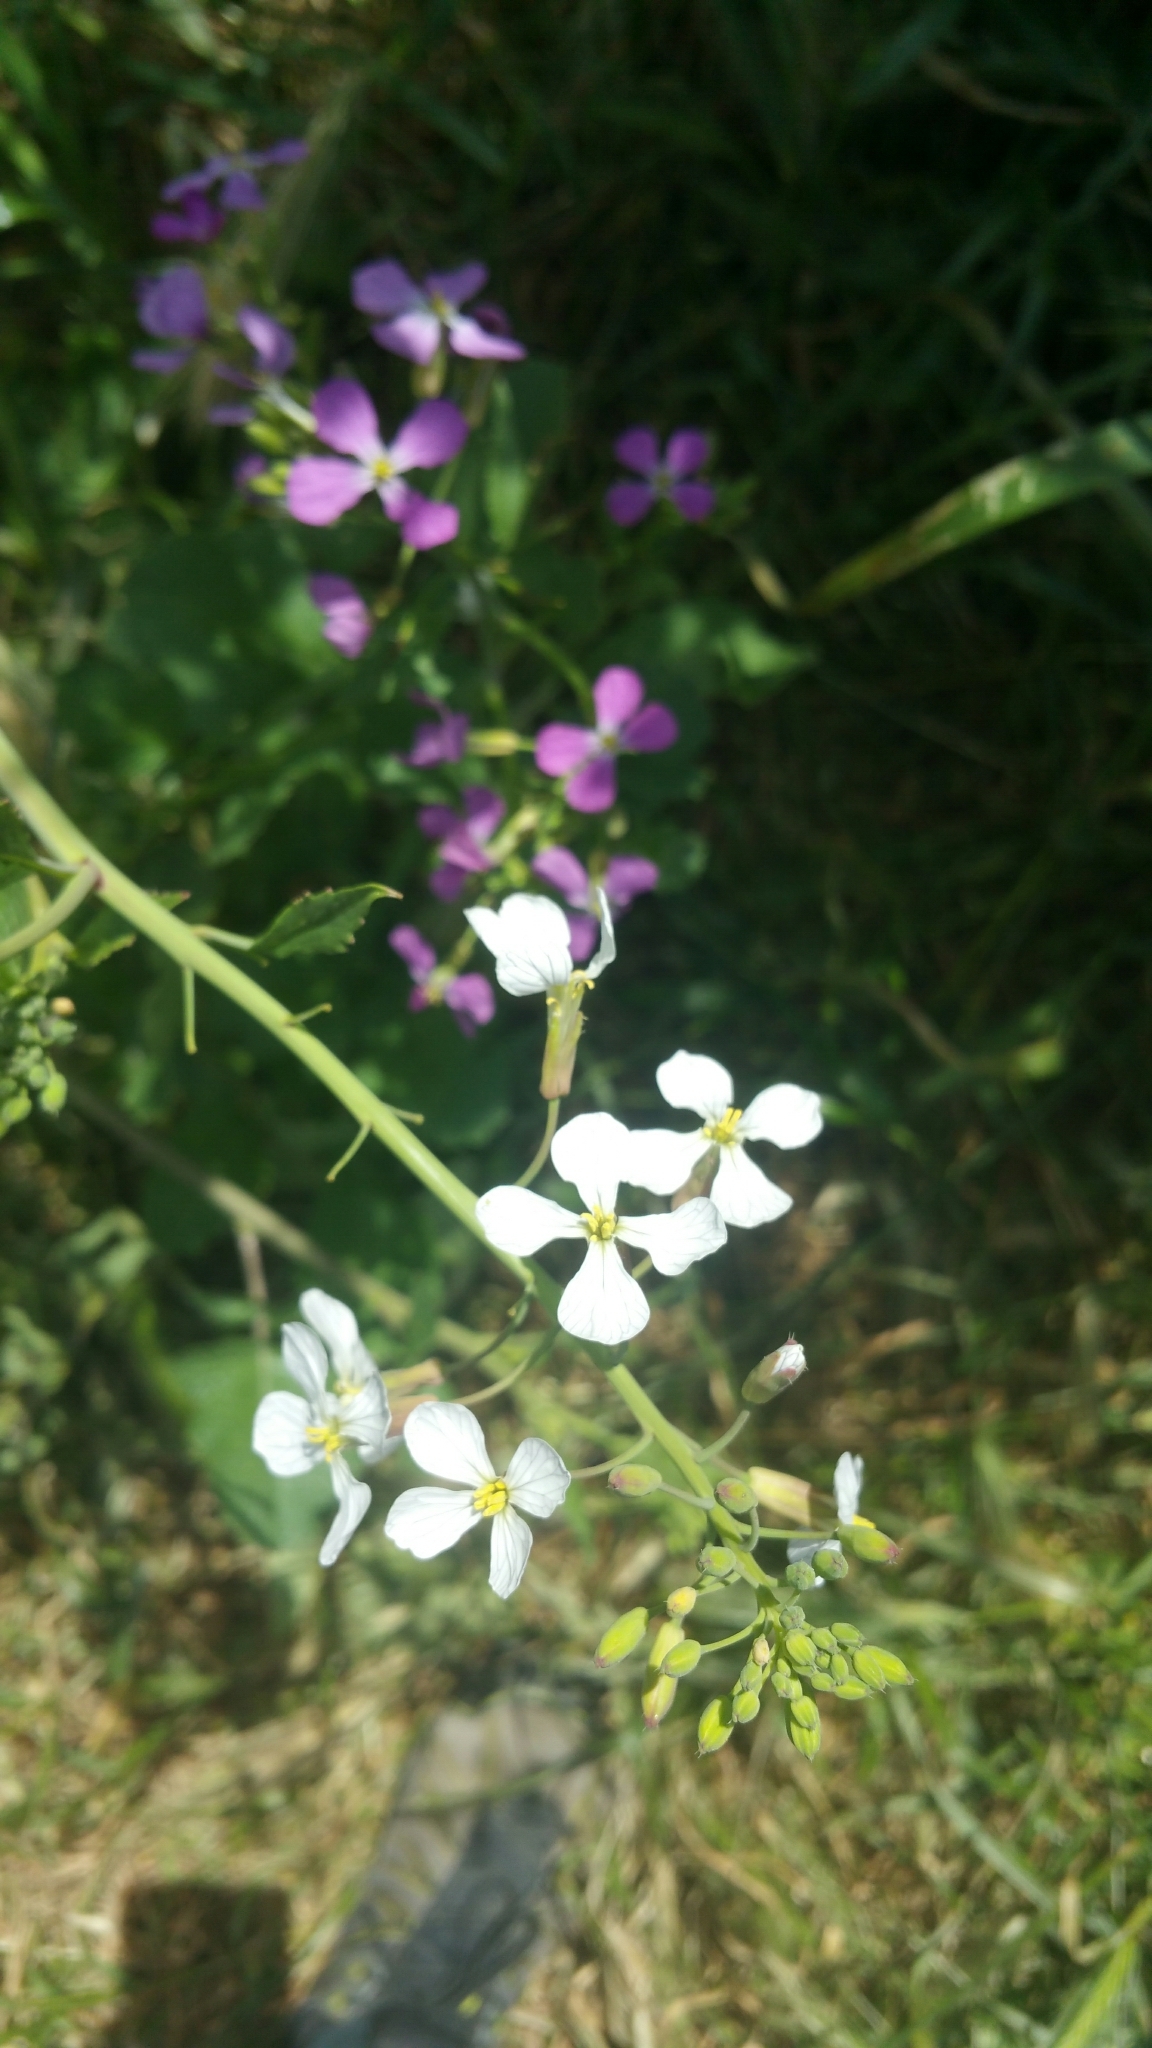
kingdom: Plantae
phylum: Tracheophyta
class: Magnoliopsida
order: Brassicales
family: Brassicaceae
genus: Raphanus
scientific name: Raphanus sativus
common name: Cultivated radish
